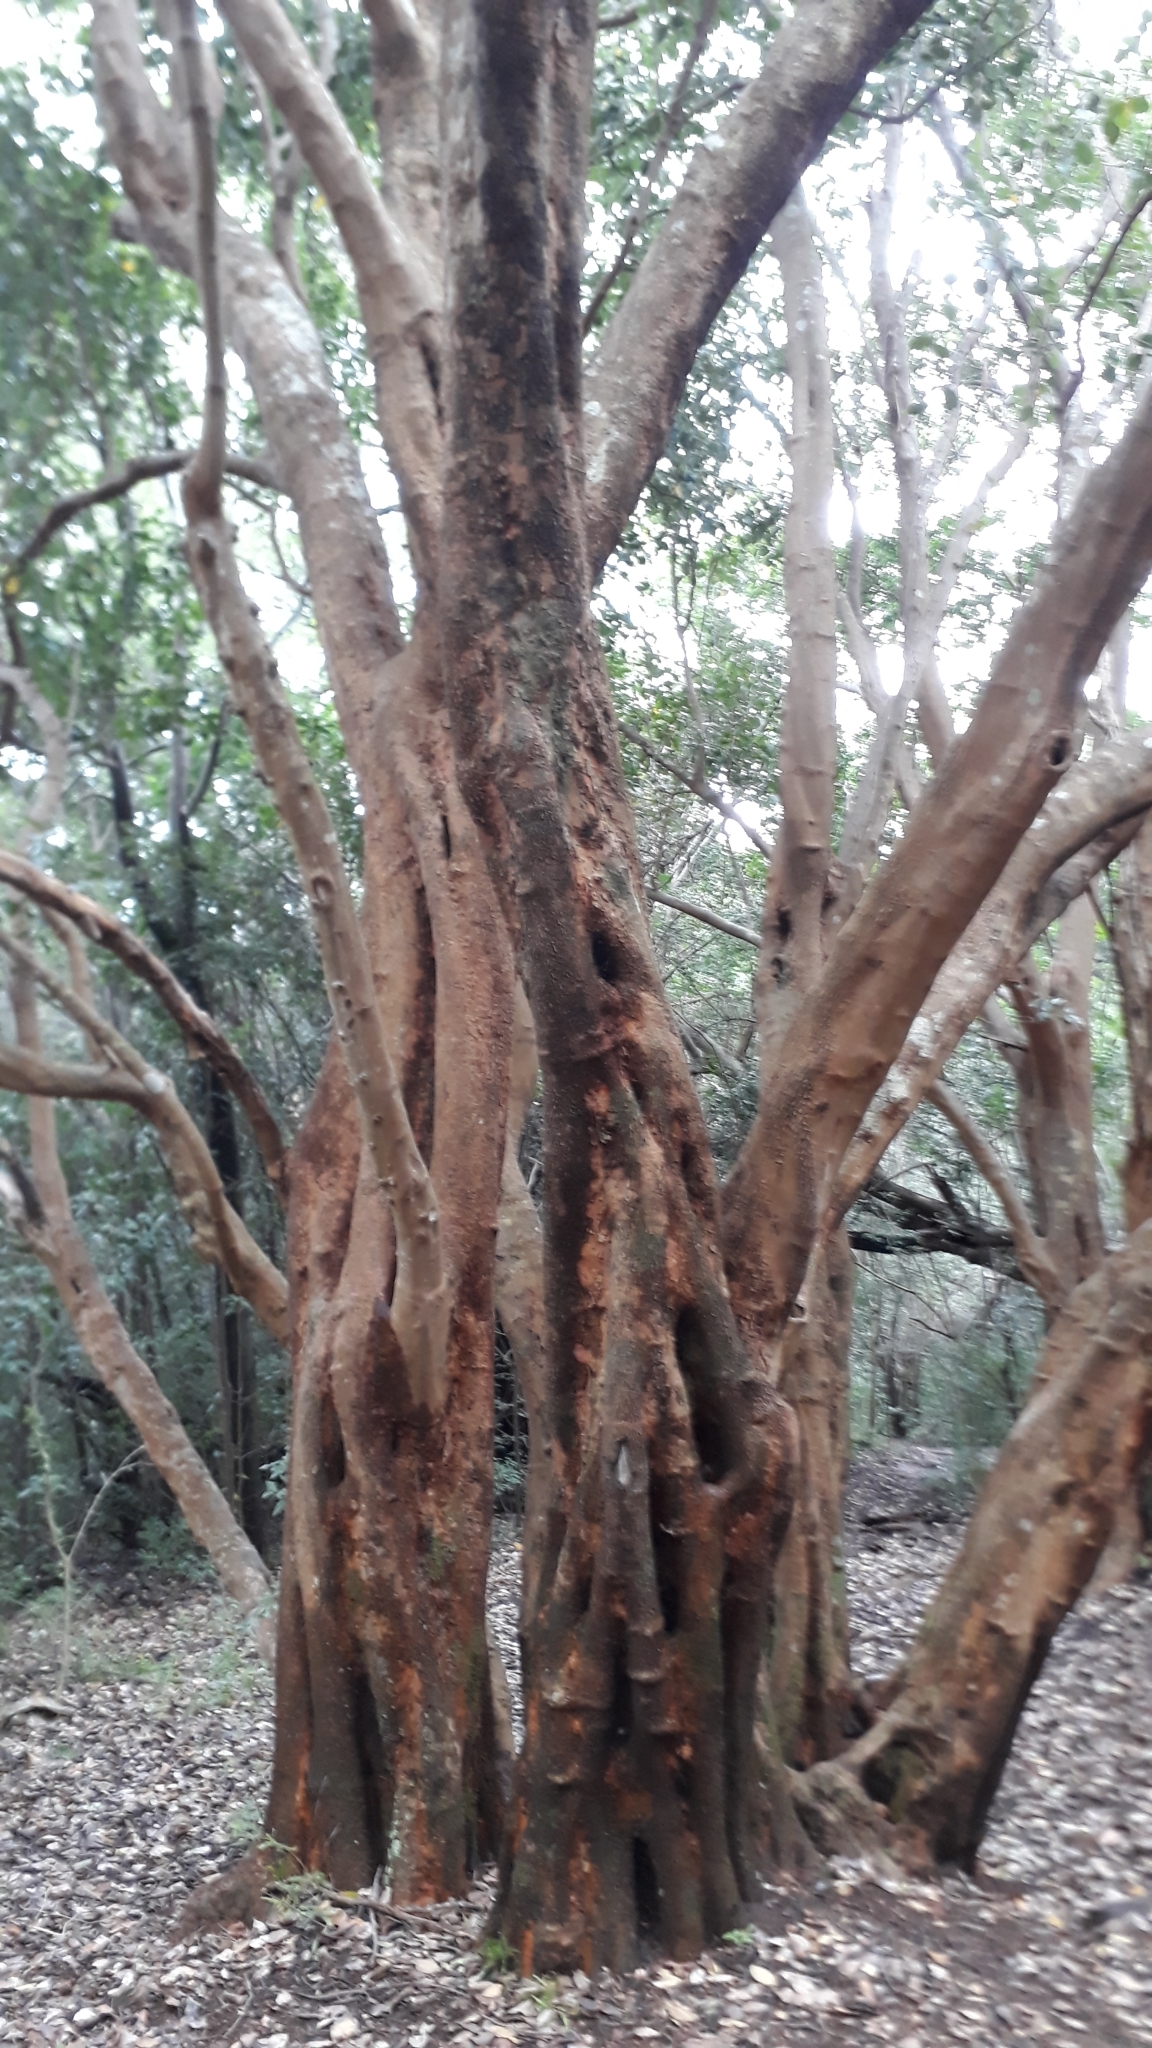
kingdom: Plantae
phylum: Tracheophyta
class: Magnoliopsida
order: Celastrales
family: Celastraceae
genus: Cassine
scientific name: Cassine peragua
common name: Cape saffron
